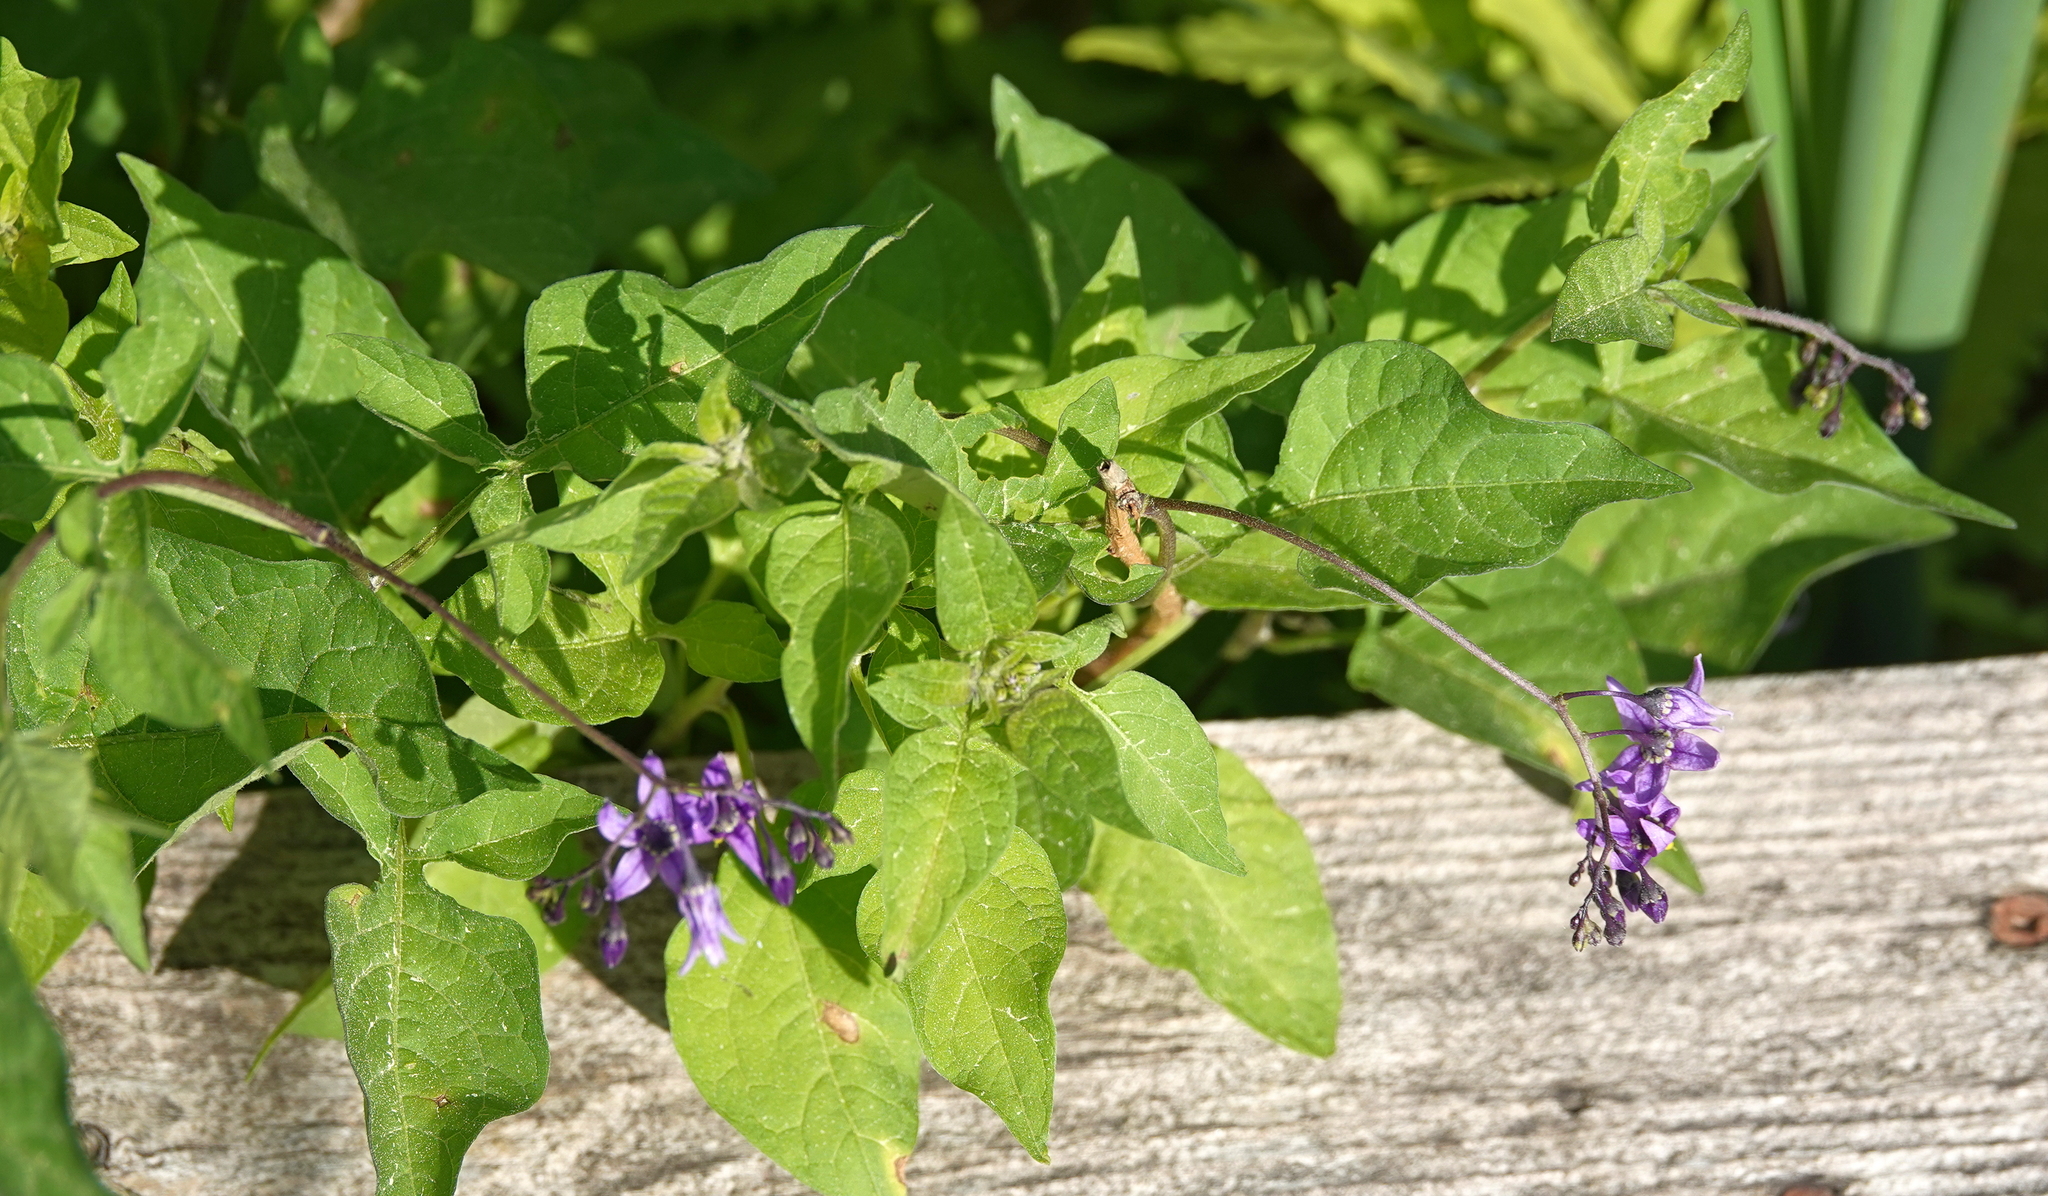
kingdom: Plantae
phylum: Tracheophyta
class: Magnoliopsida
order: Solanales
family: Solanaceae
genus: Solanum
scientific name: Solanum dulcamara
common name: Climbing nightshade
